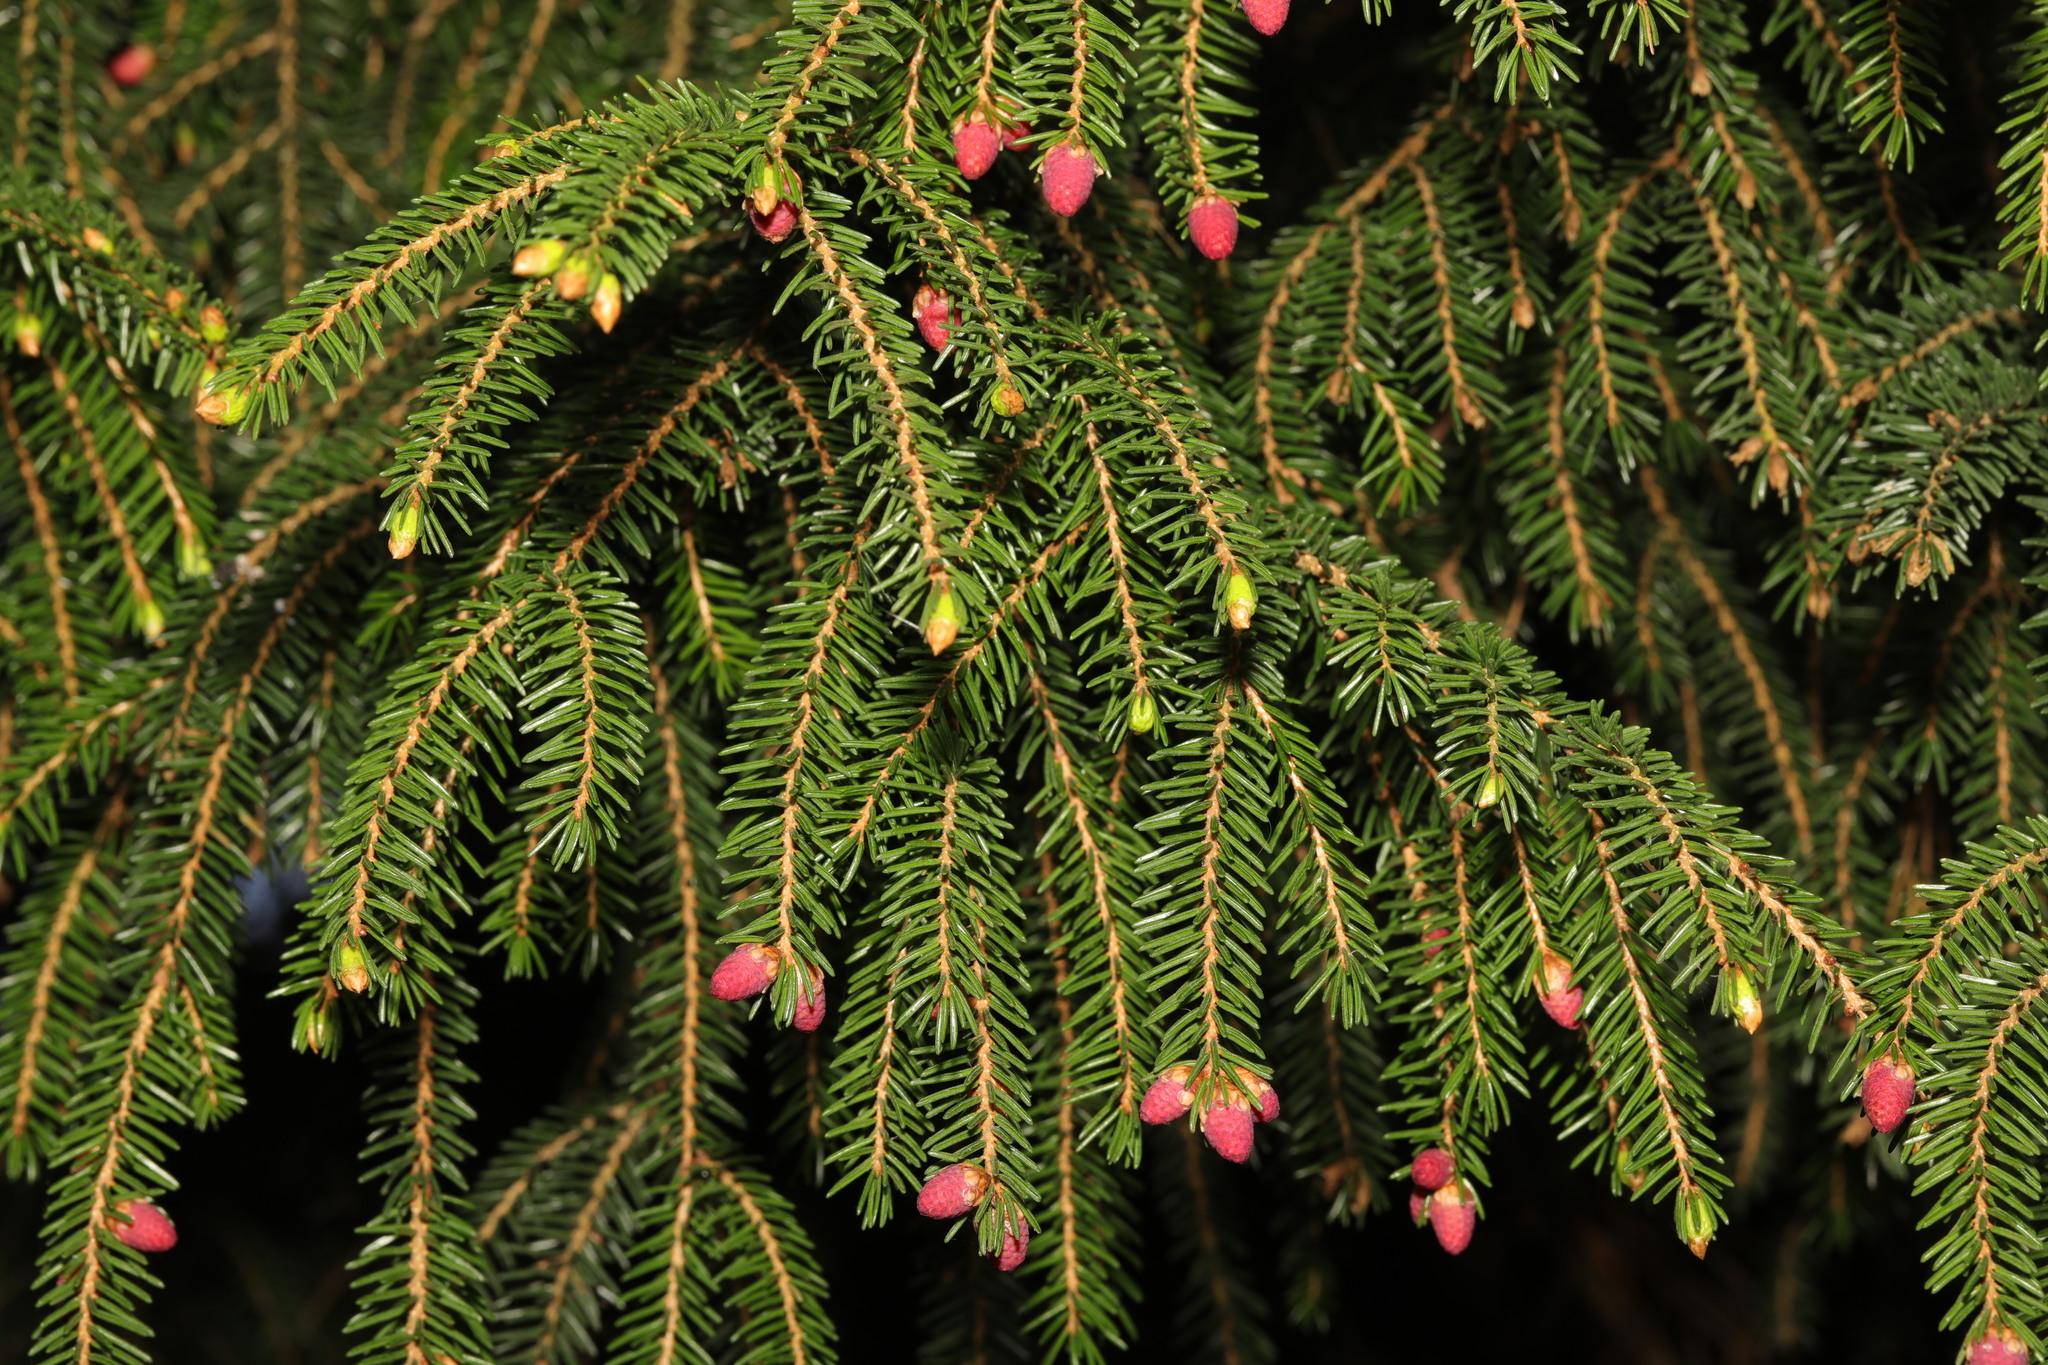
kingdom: Plantae
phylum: Tracheophyta
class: Pinopsida
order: Pinales
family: Pinaceae
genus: Picea
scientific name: Picea abies
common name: Norway spruce
